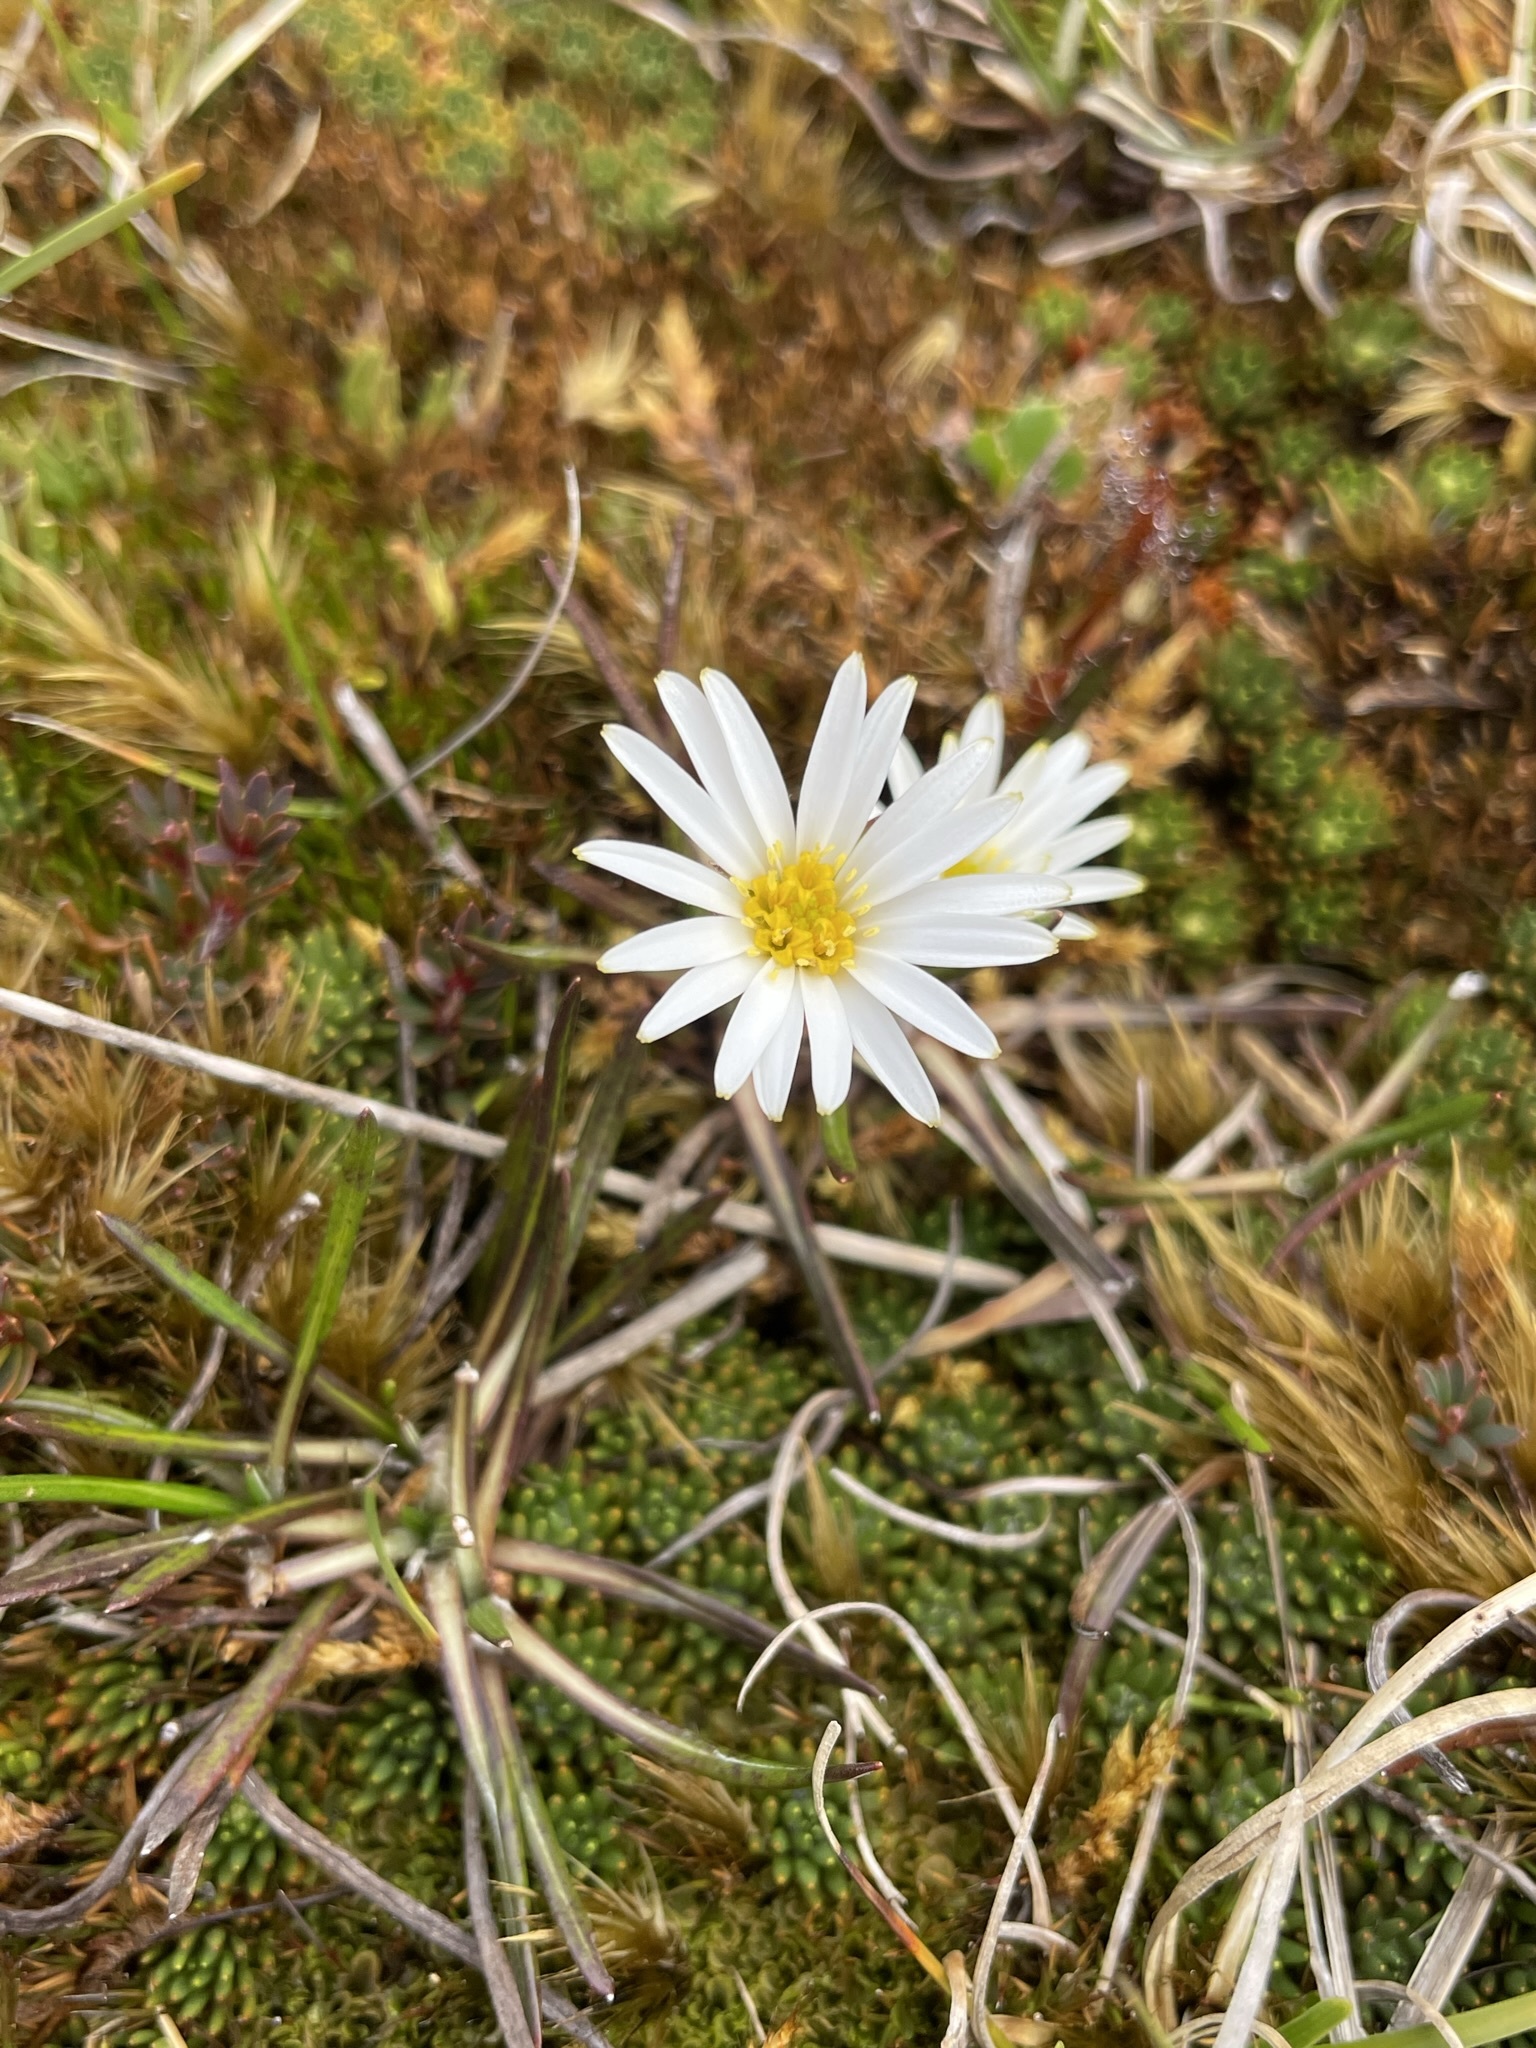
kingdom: Plantae
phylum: Tracheophyta
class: Magnoliopsida
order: Asterales
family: Asteraceae
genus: Celmisia
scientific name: Celmisia gracilenta
